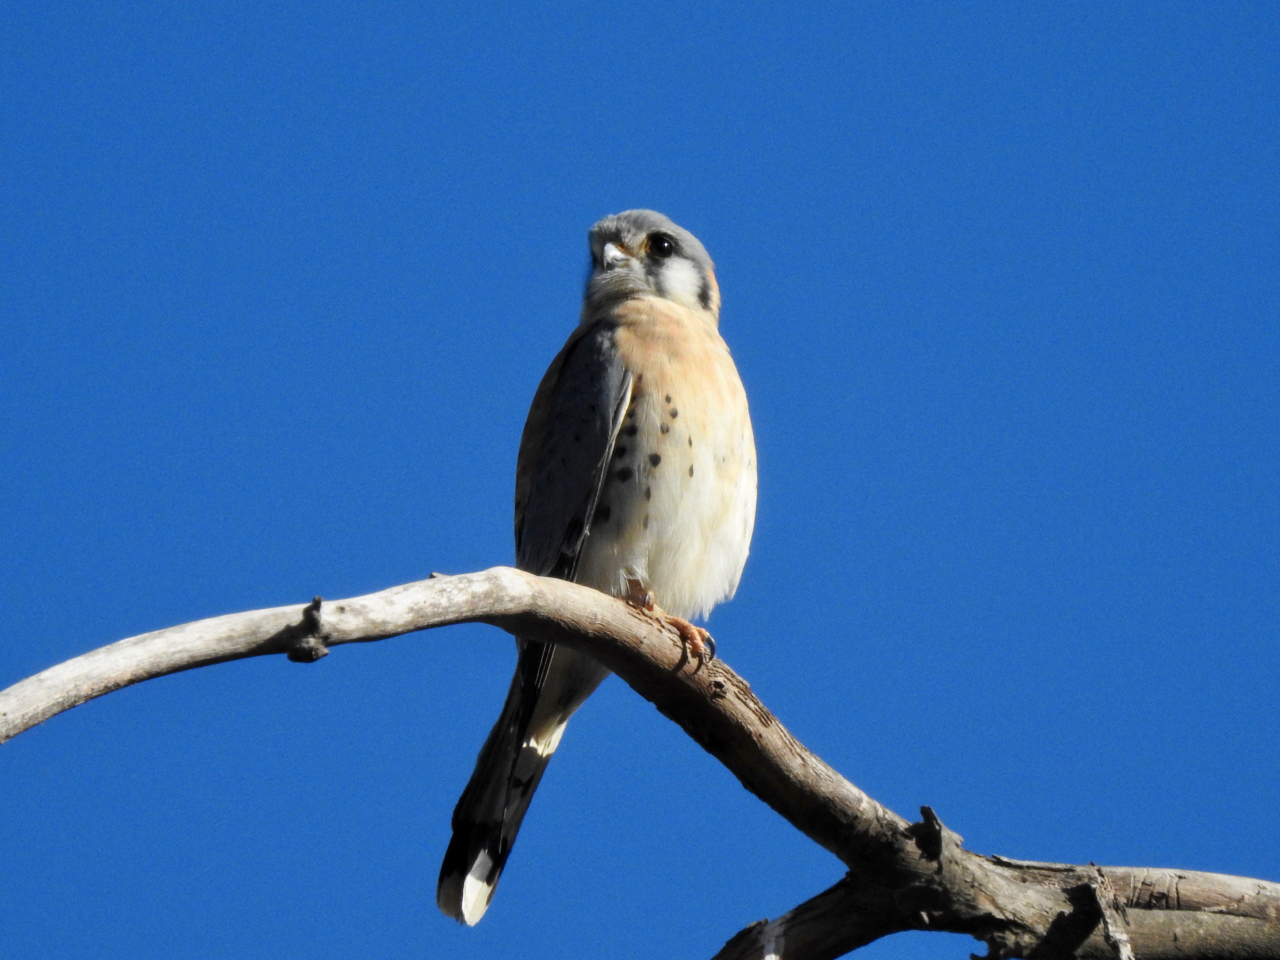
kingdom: Animalia
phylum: Chordata
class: Aves
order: Falconiformes
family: Falconidae
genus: Falco
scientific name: Falco sparverius
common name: American kestrel
